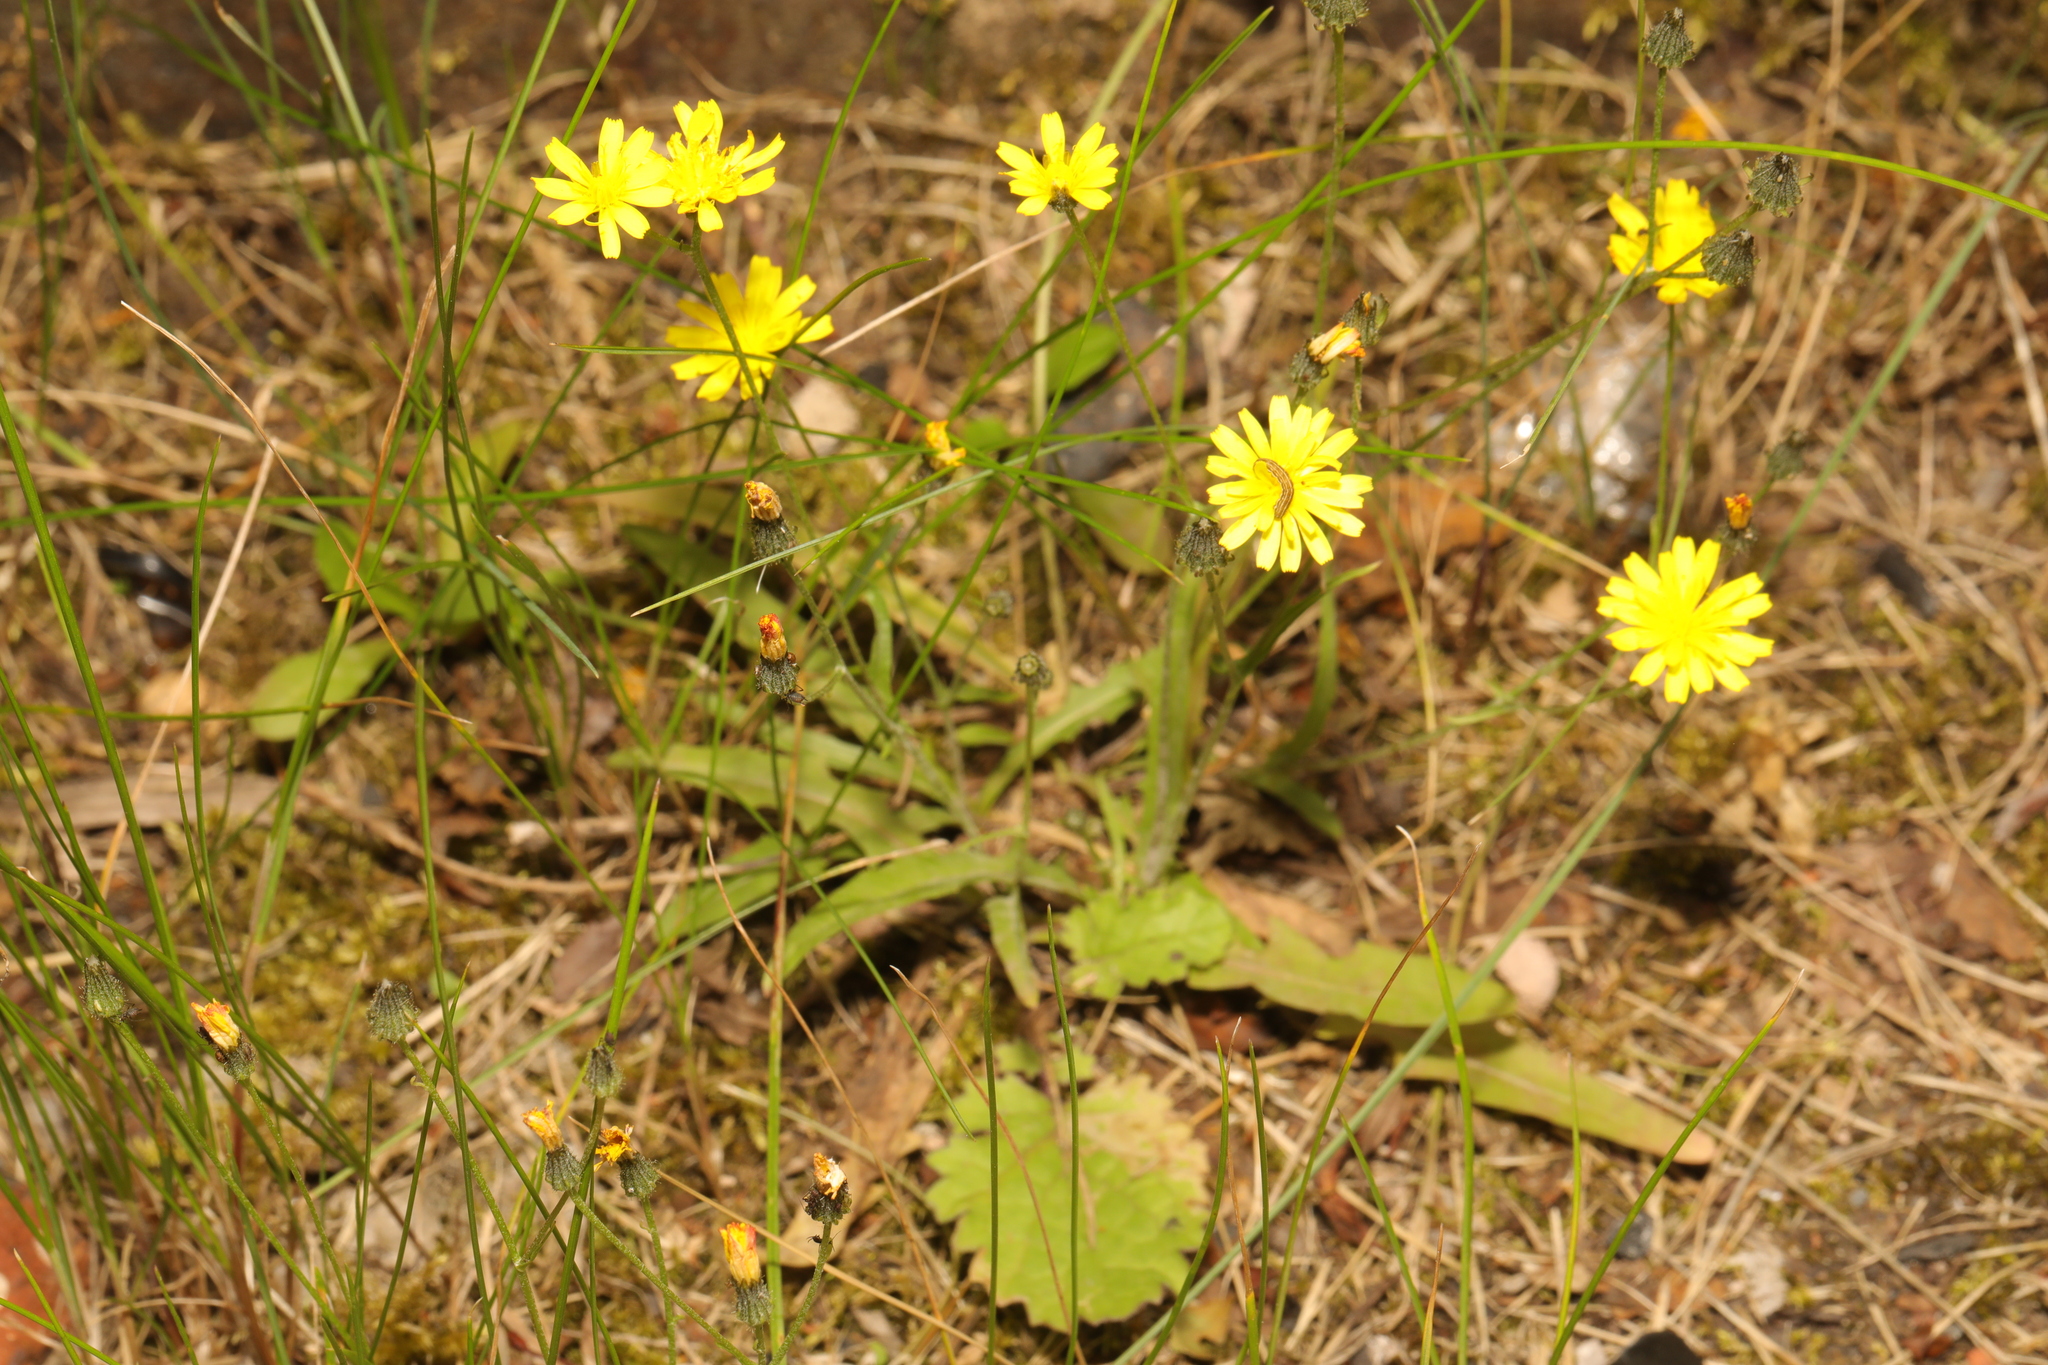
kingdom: Plantae
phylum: Tracheophyta
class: Magnoliopsida
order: Asterales
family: Asteraceae
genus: Crepis
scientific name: Crepis capillaris
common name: Smooth hawksbeard
